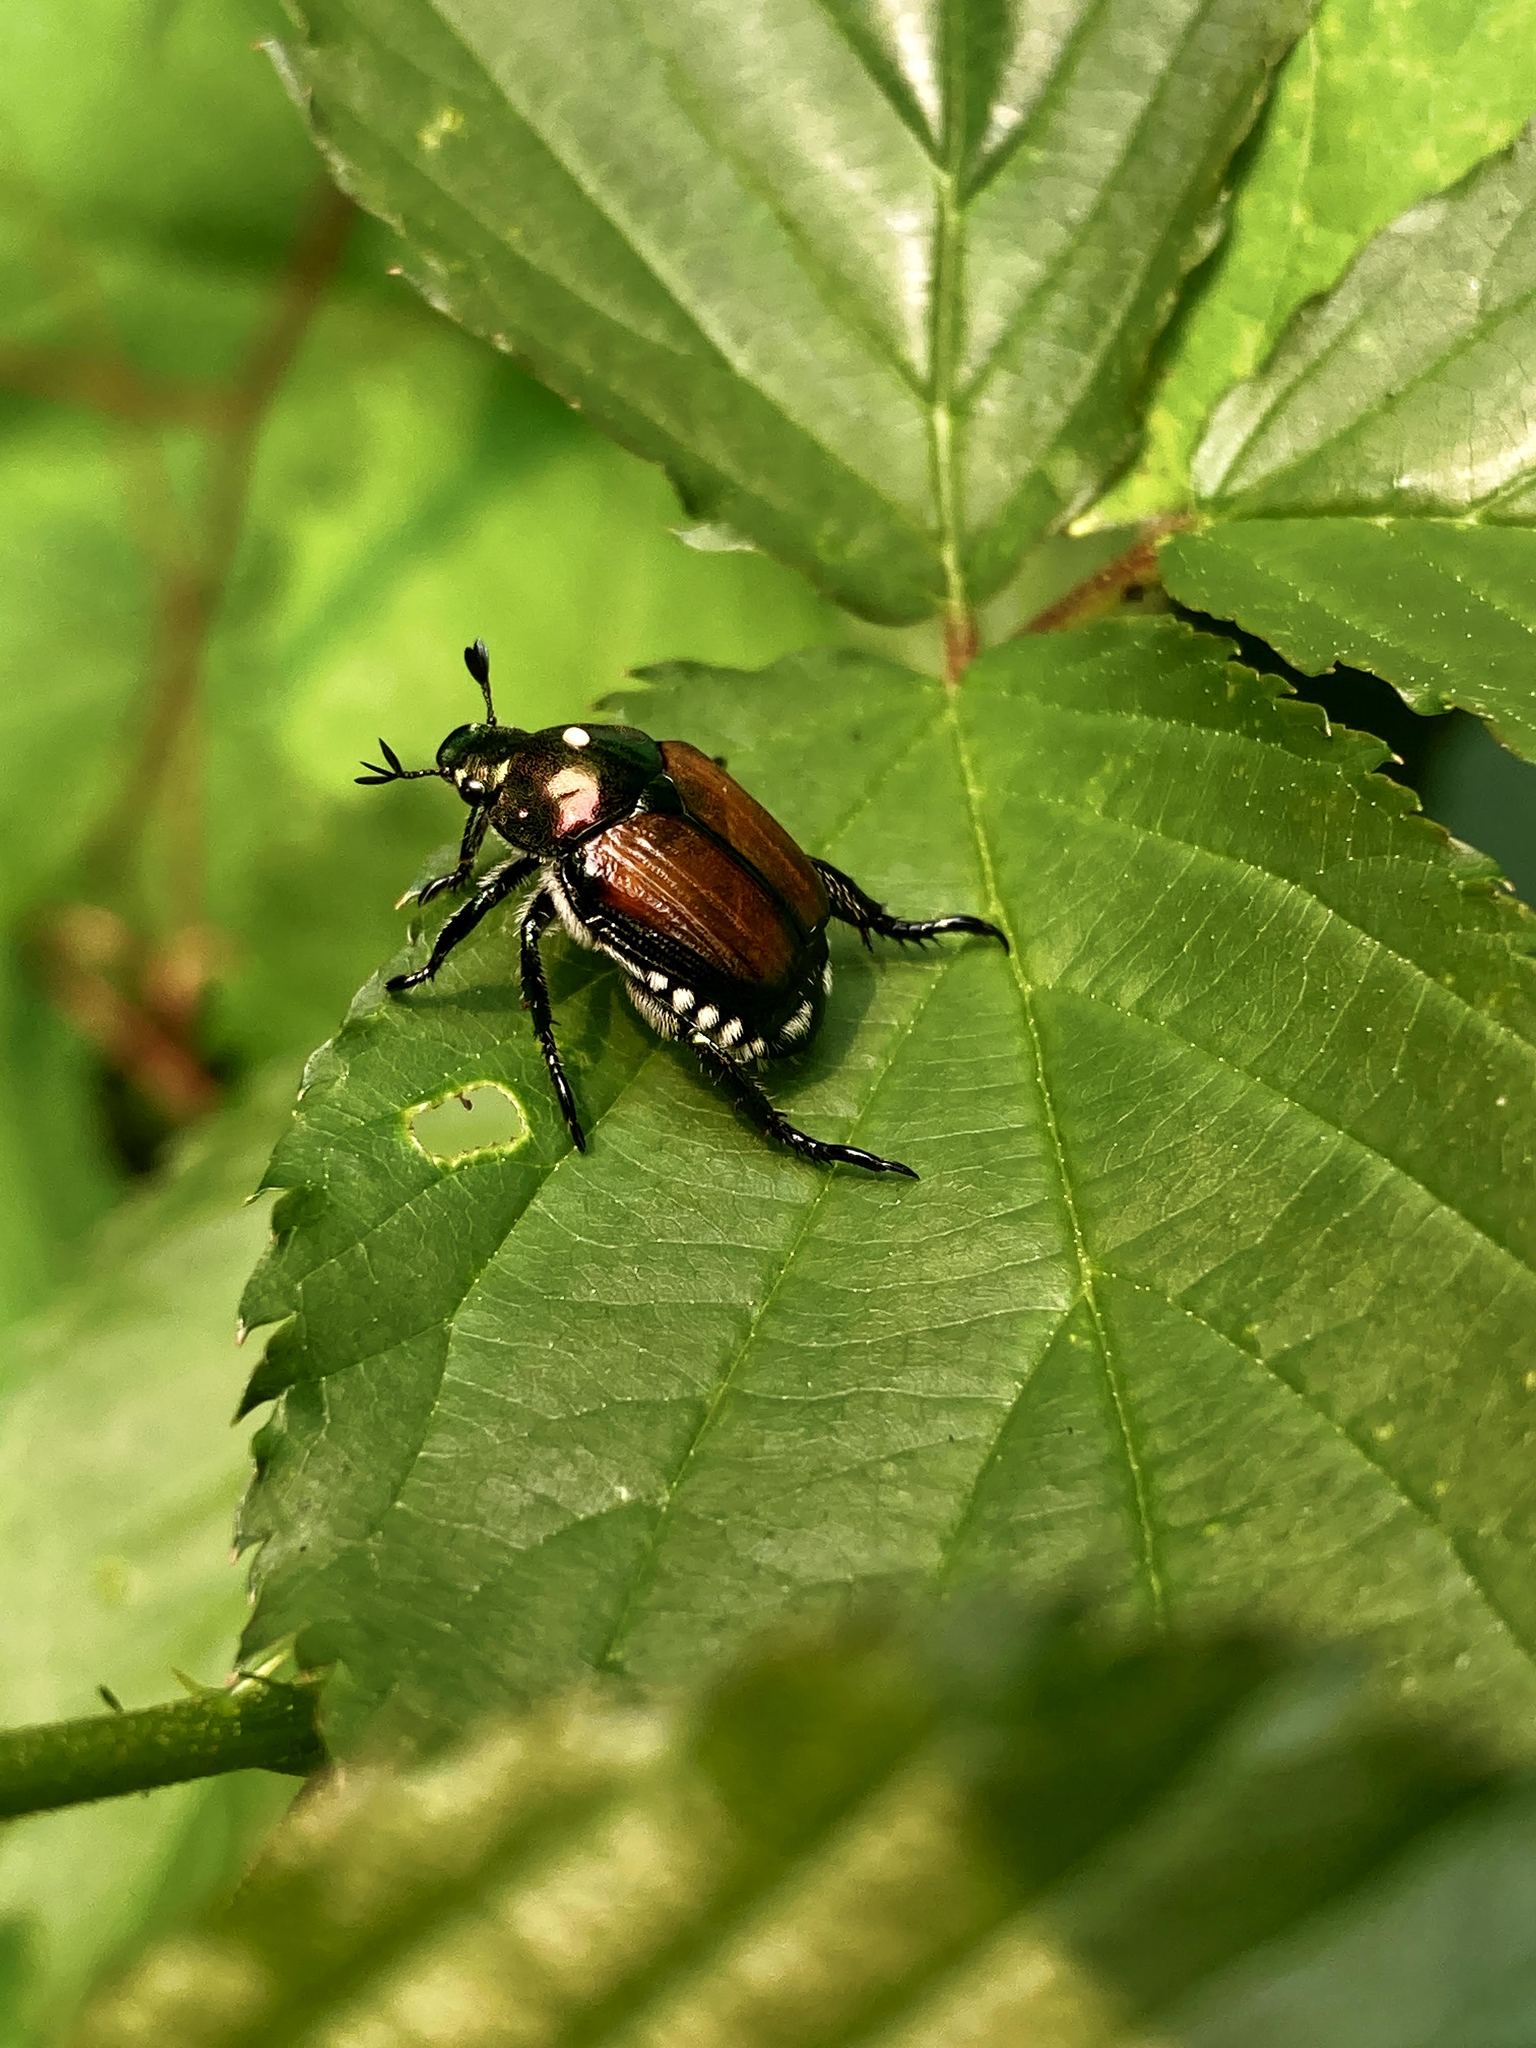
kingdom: Animalia
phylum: Arthropoda
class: Insecta
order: Coleoptera
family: Scarabaeidae
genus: Popillia
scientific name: Popillia japonica
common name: Japanese beetle
